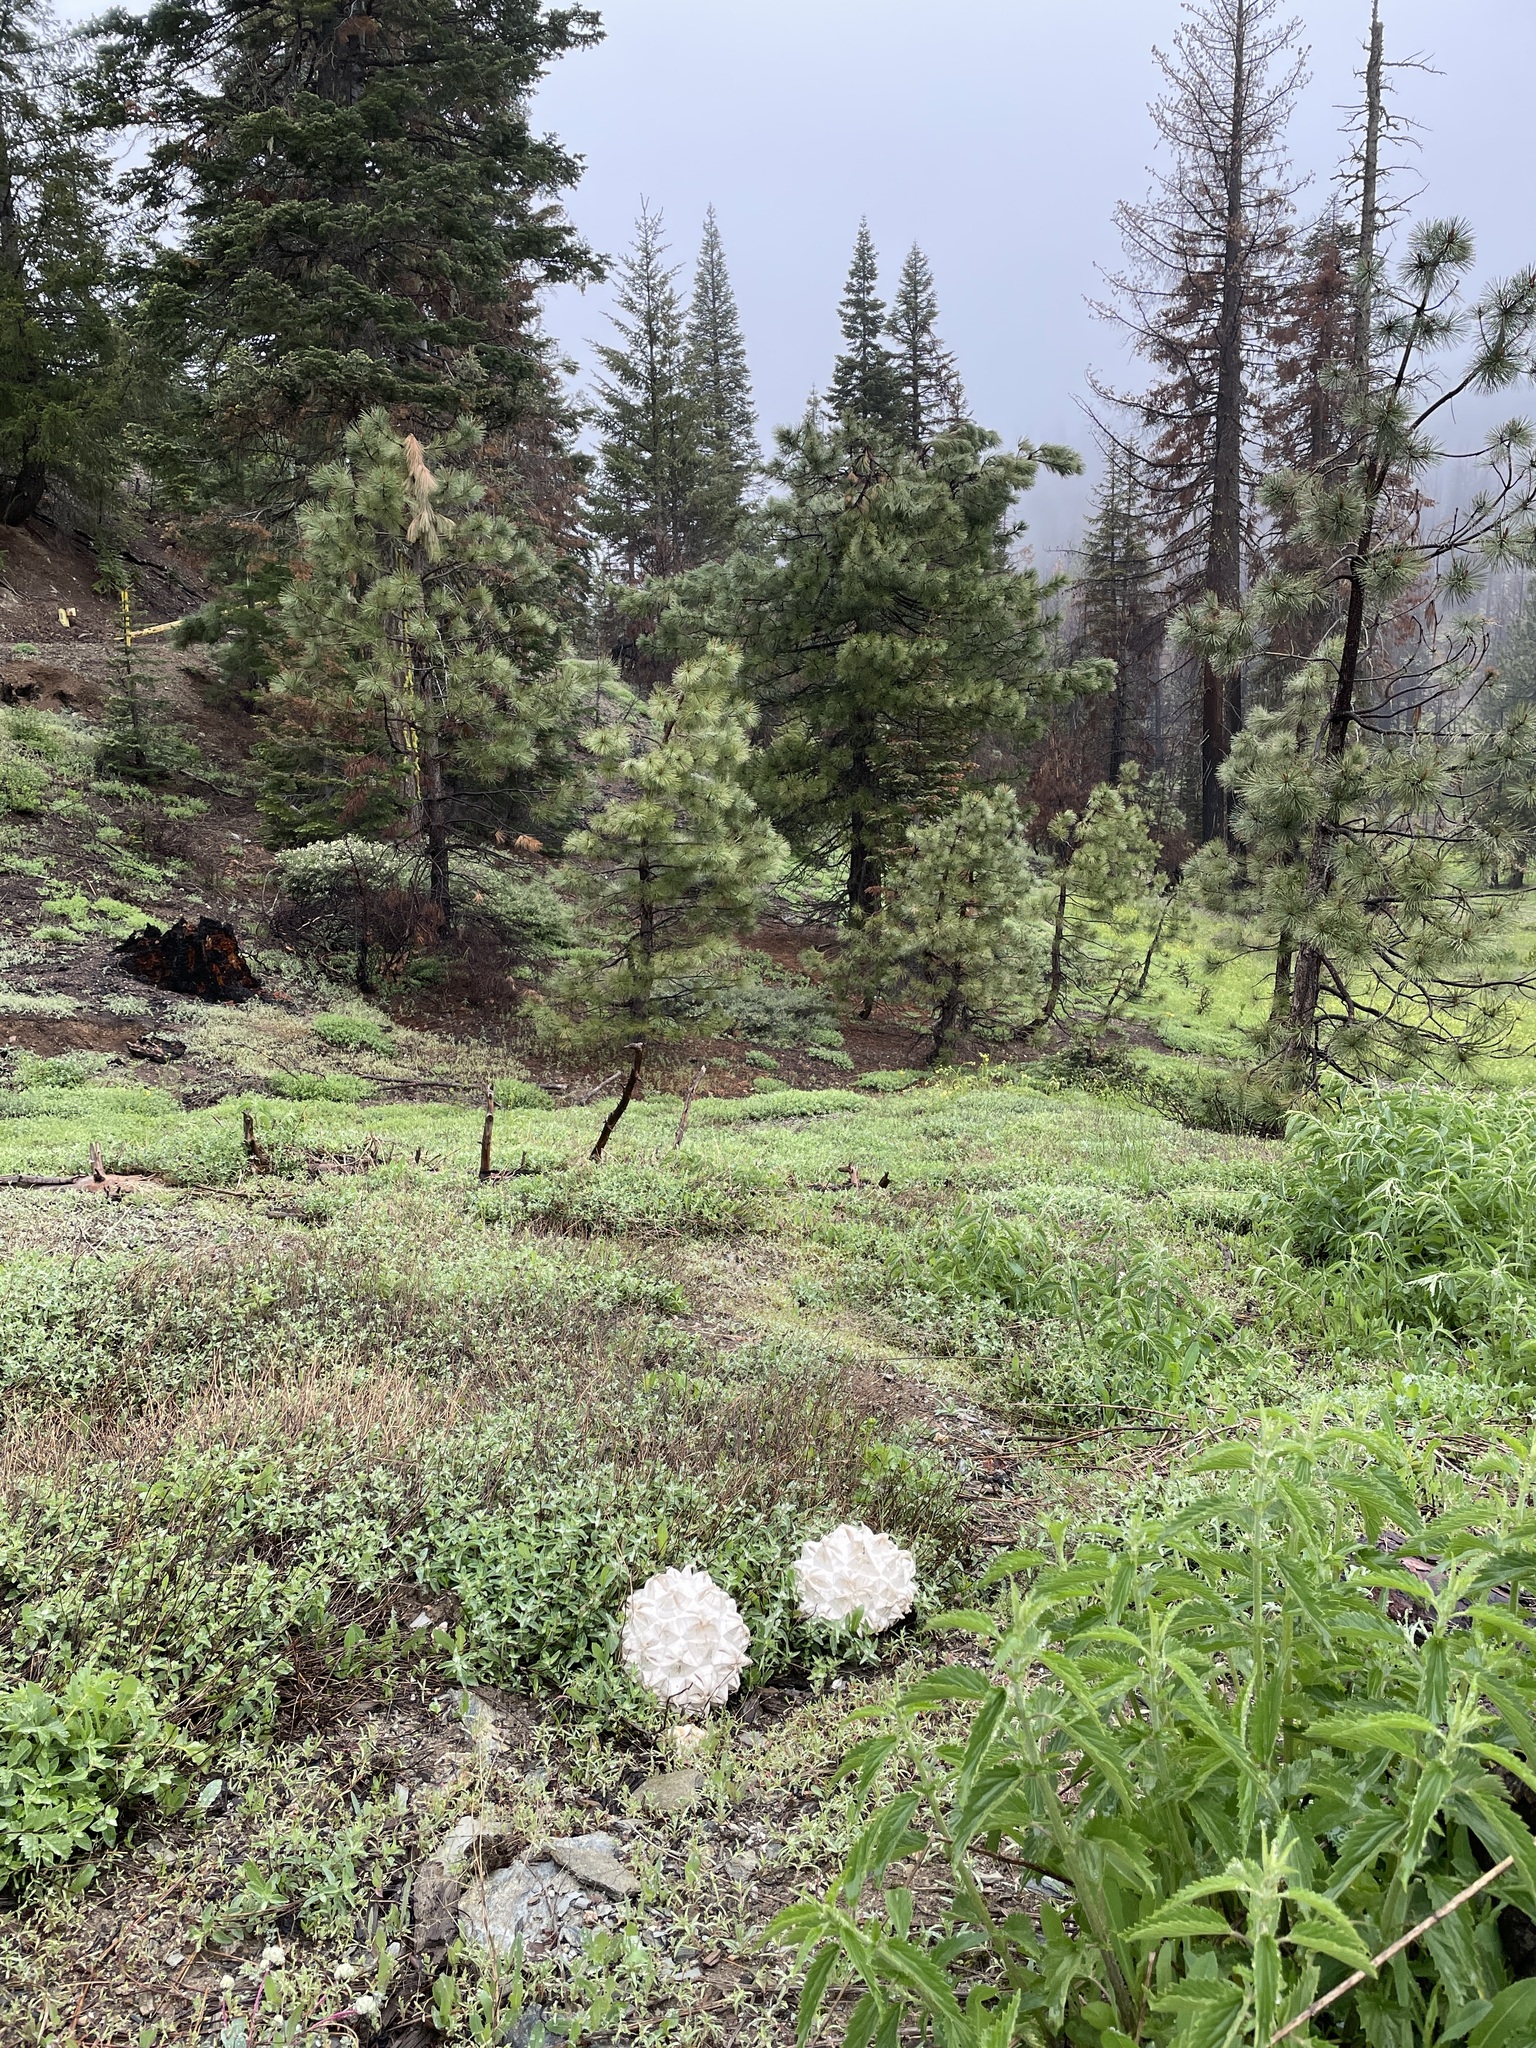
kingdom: Fungi
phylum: Basidiomycota
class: Agaricomycetes
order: Agaricales
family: Lycoperdaceae
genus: Calvatia
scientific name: Calvatia sculpta
